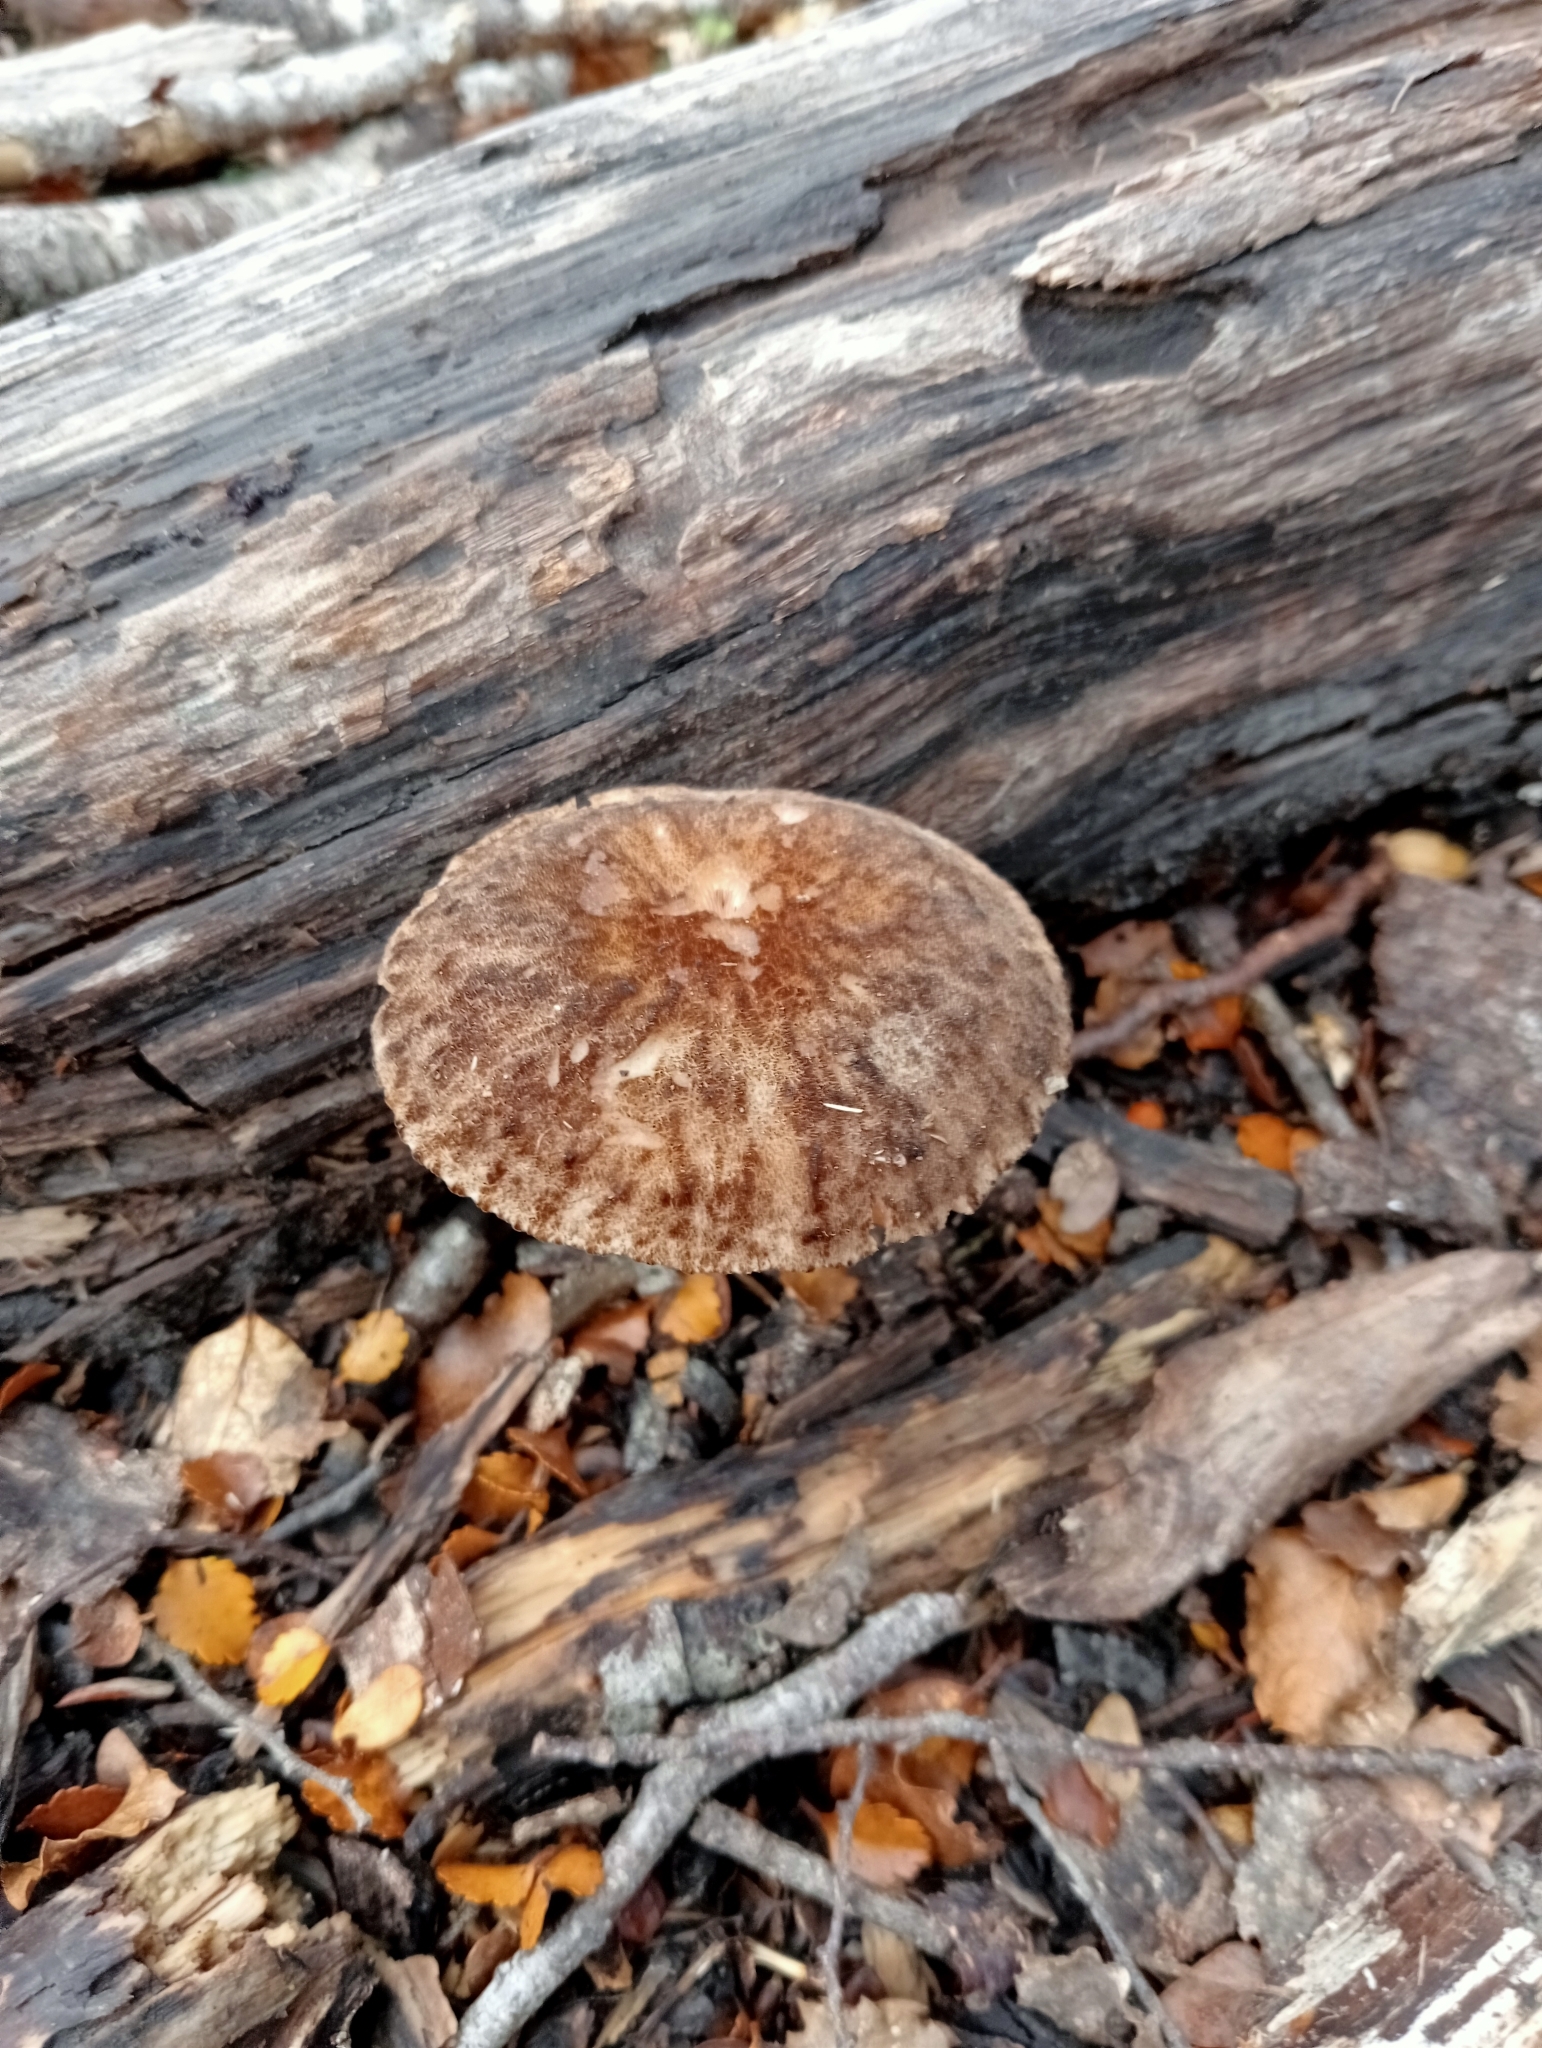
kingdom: Fungi
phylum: Basidiomycota
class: Agaricomycetes
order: Agaricales
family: Pluteaceae
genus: Pluteus
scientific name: Pluteus perroseus
